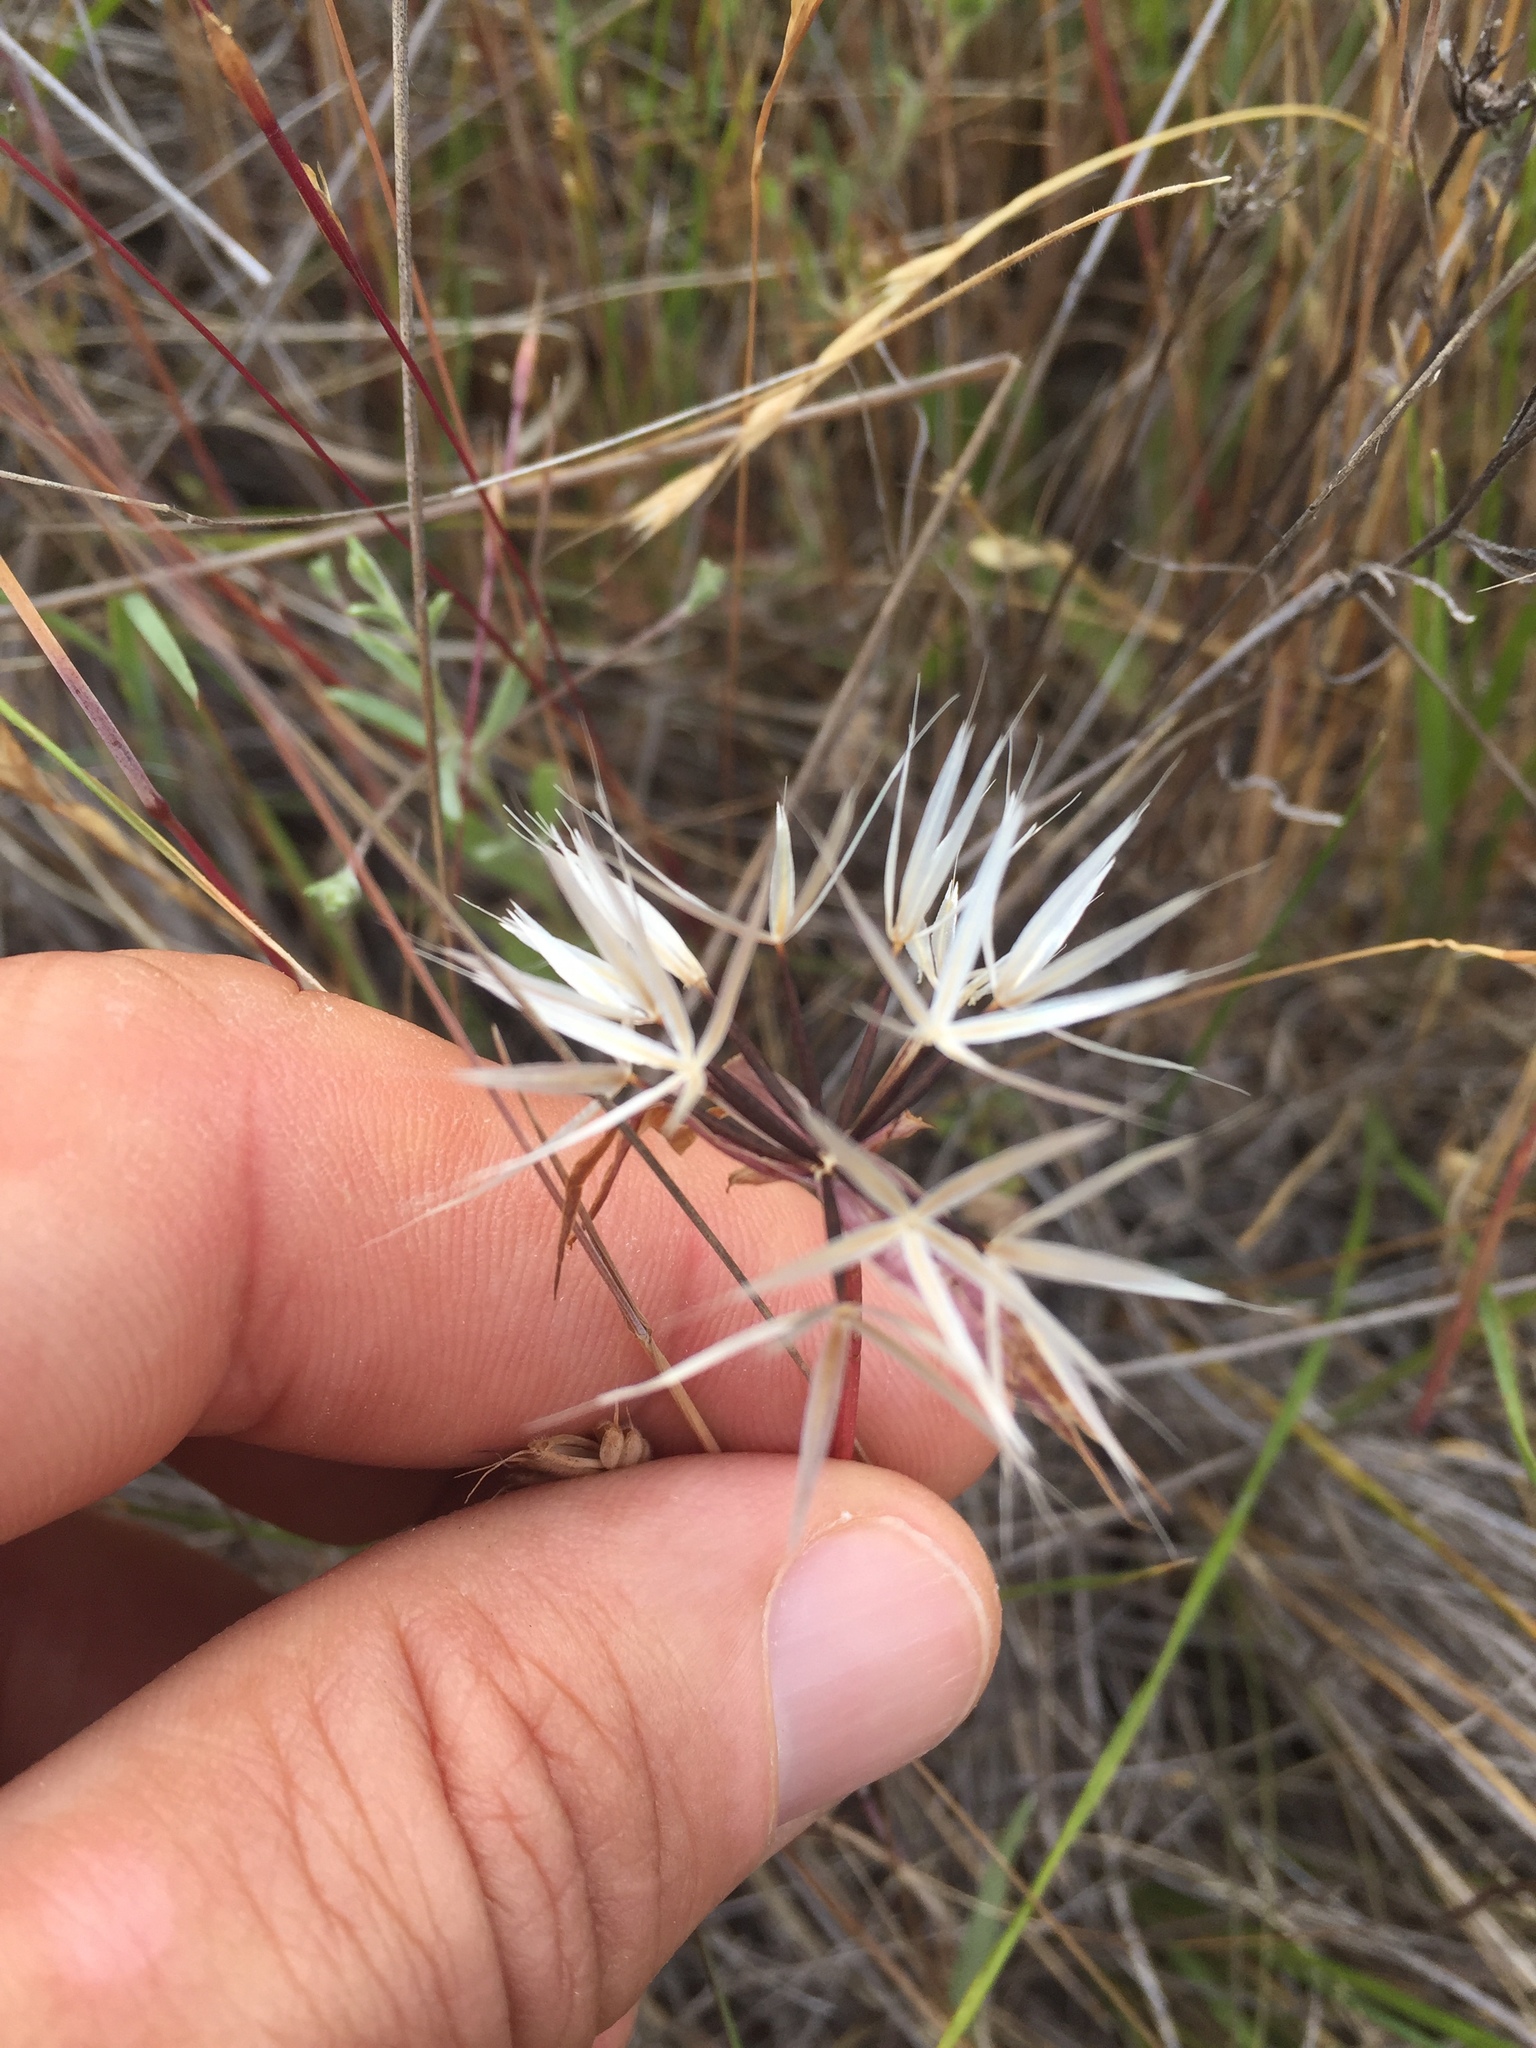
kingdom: Plantae
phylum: Tracheophyta
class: Magnoliopsida
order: Asterales
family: Asteraceae
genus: Microseris
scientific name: Microseris lindleyi
